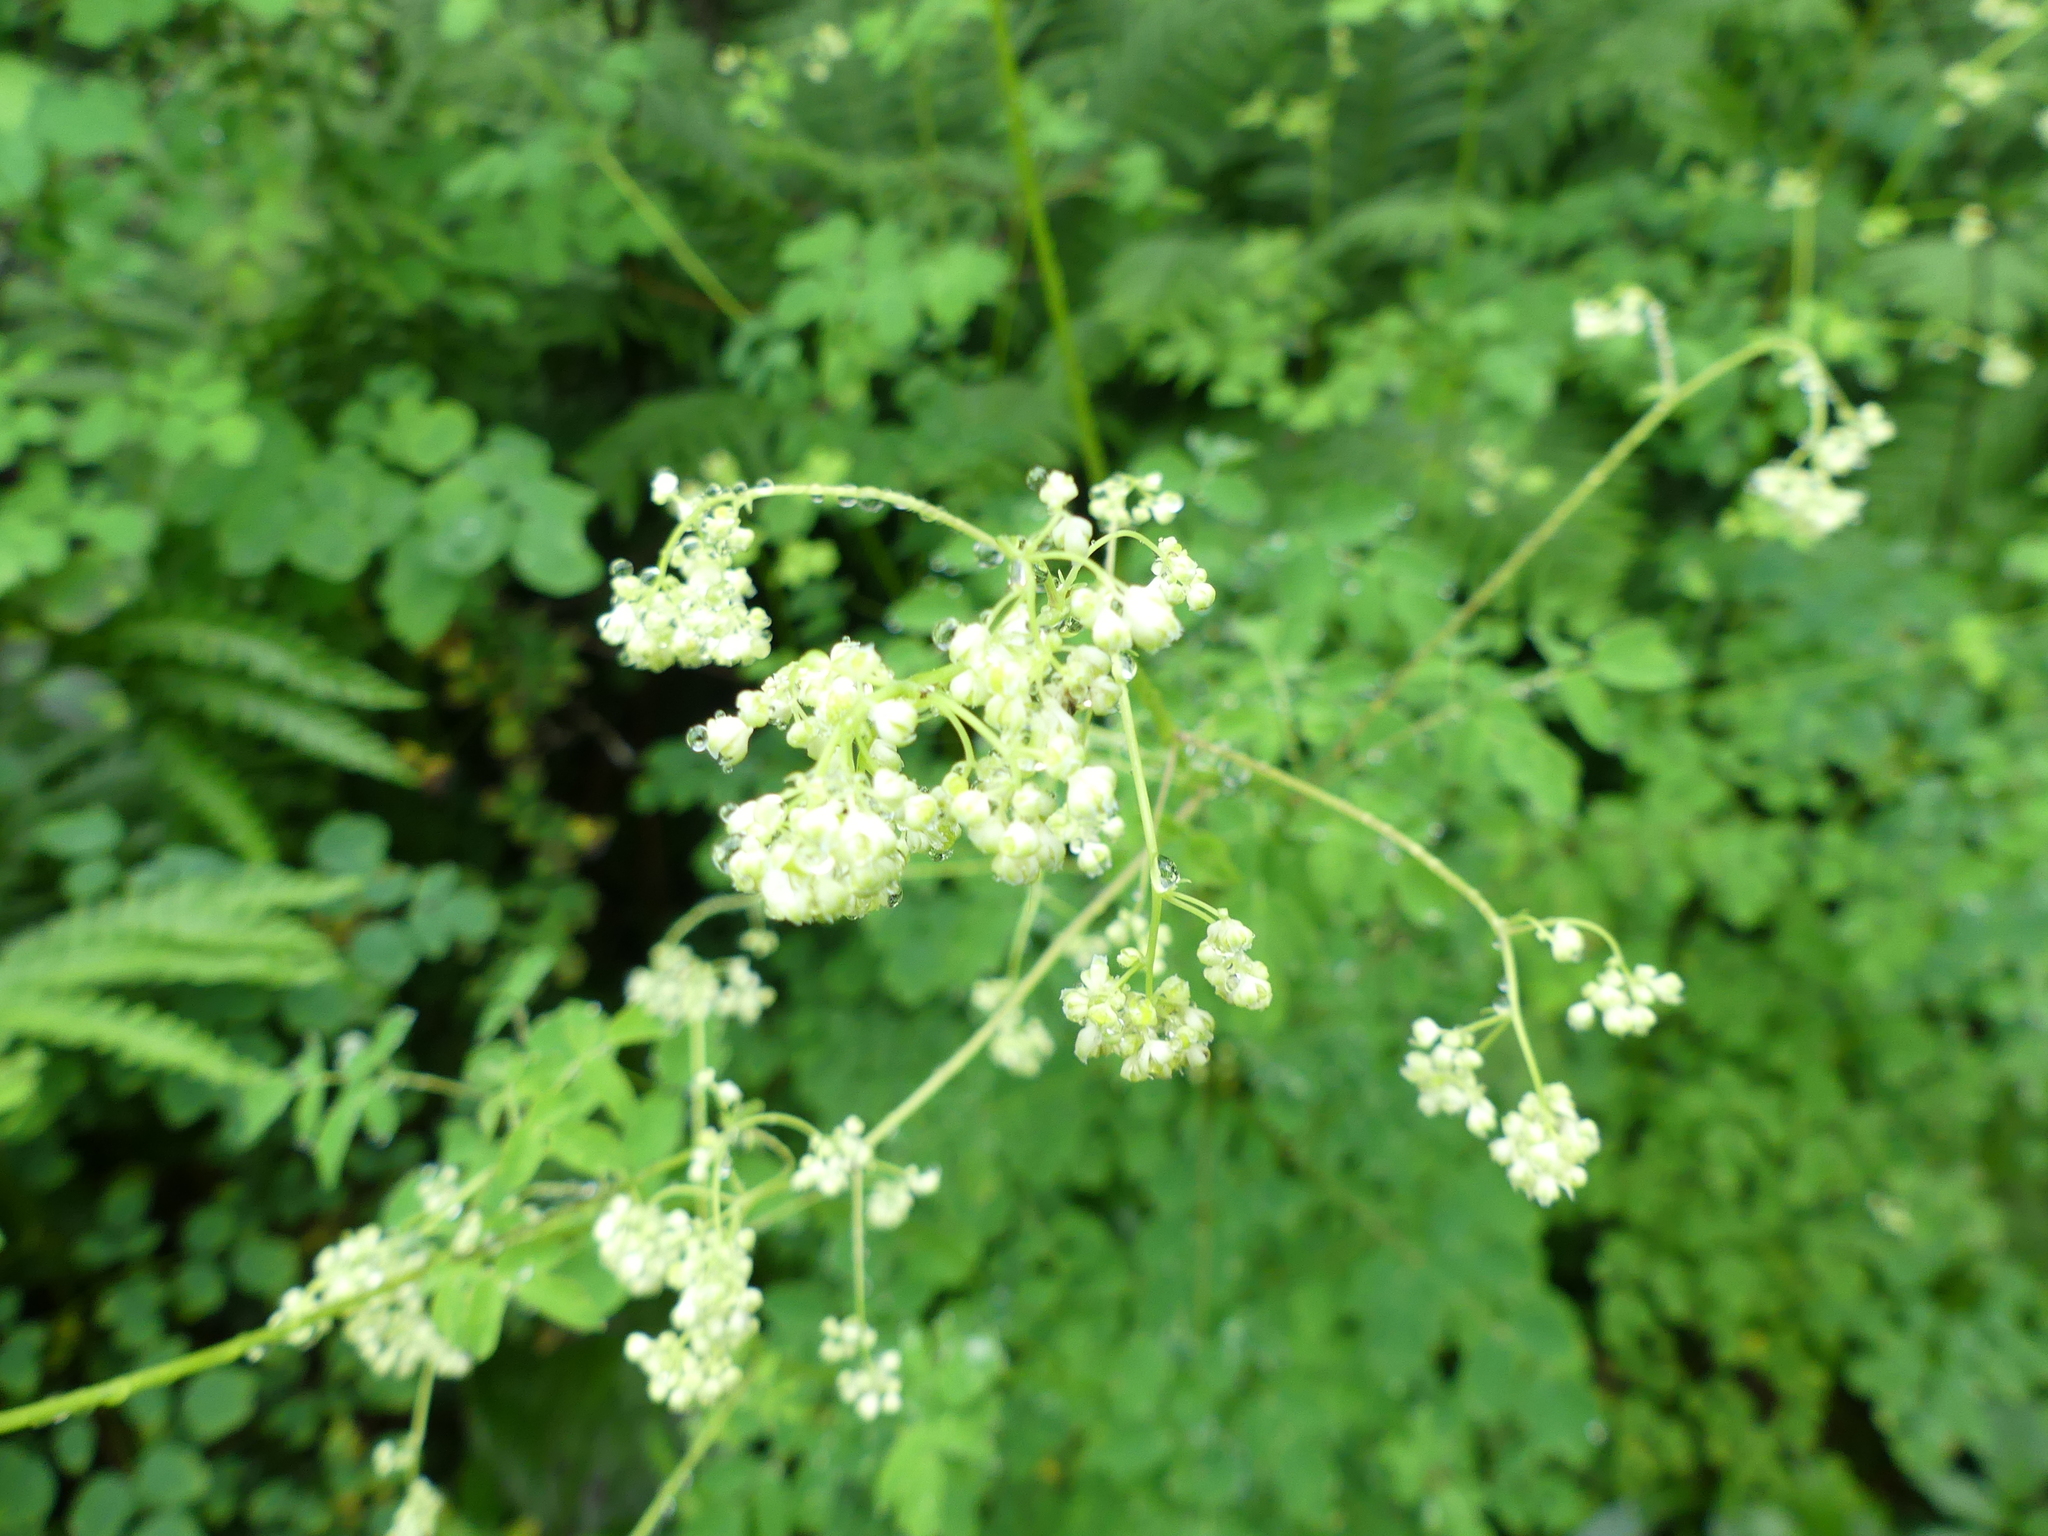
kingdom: Plantae
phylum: Tracheophyta
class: Magnoliopsida
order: Ranunculales
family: Ranunculaceae
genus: Thalictrum
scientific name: Thalictrum pubescens
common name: King-of-the-meadow
